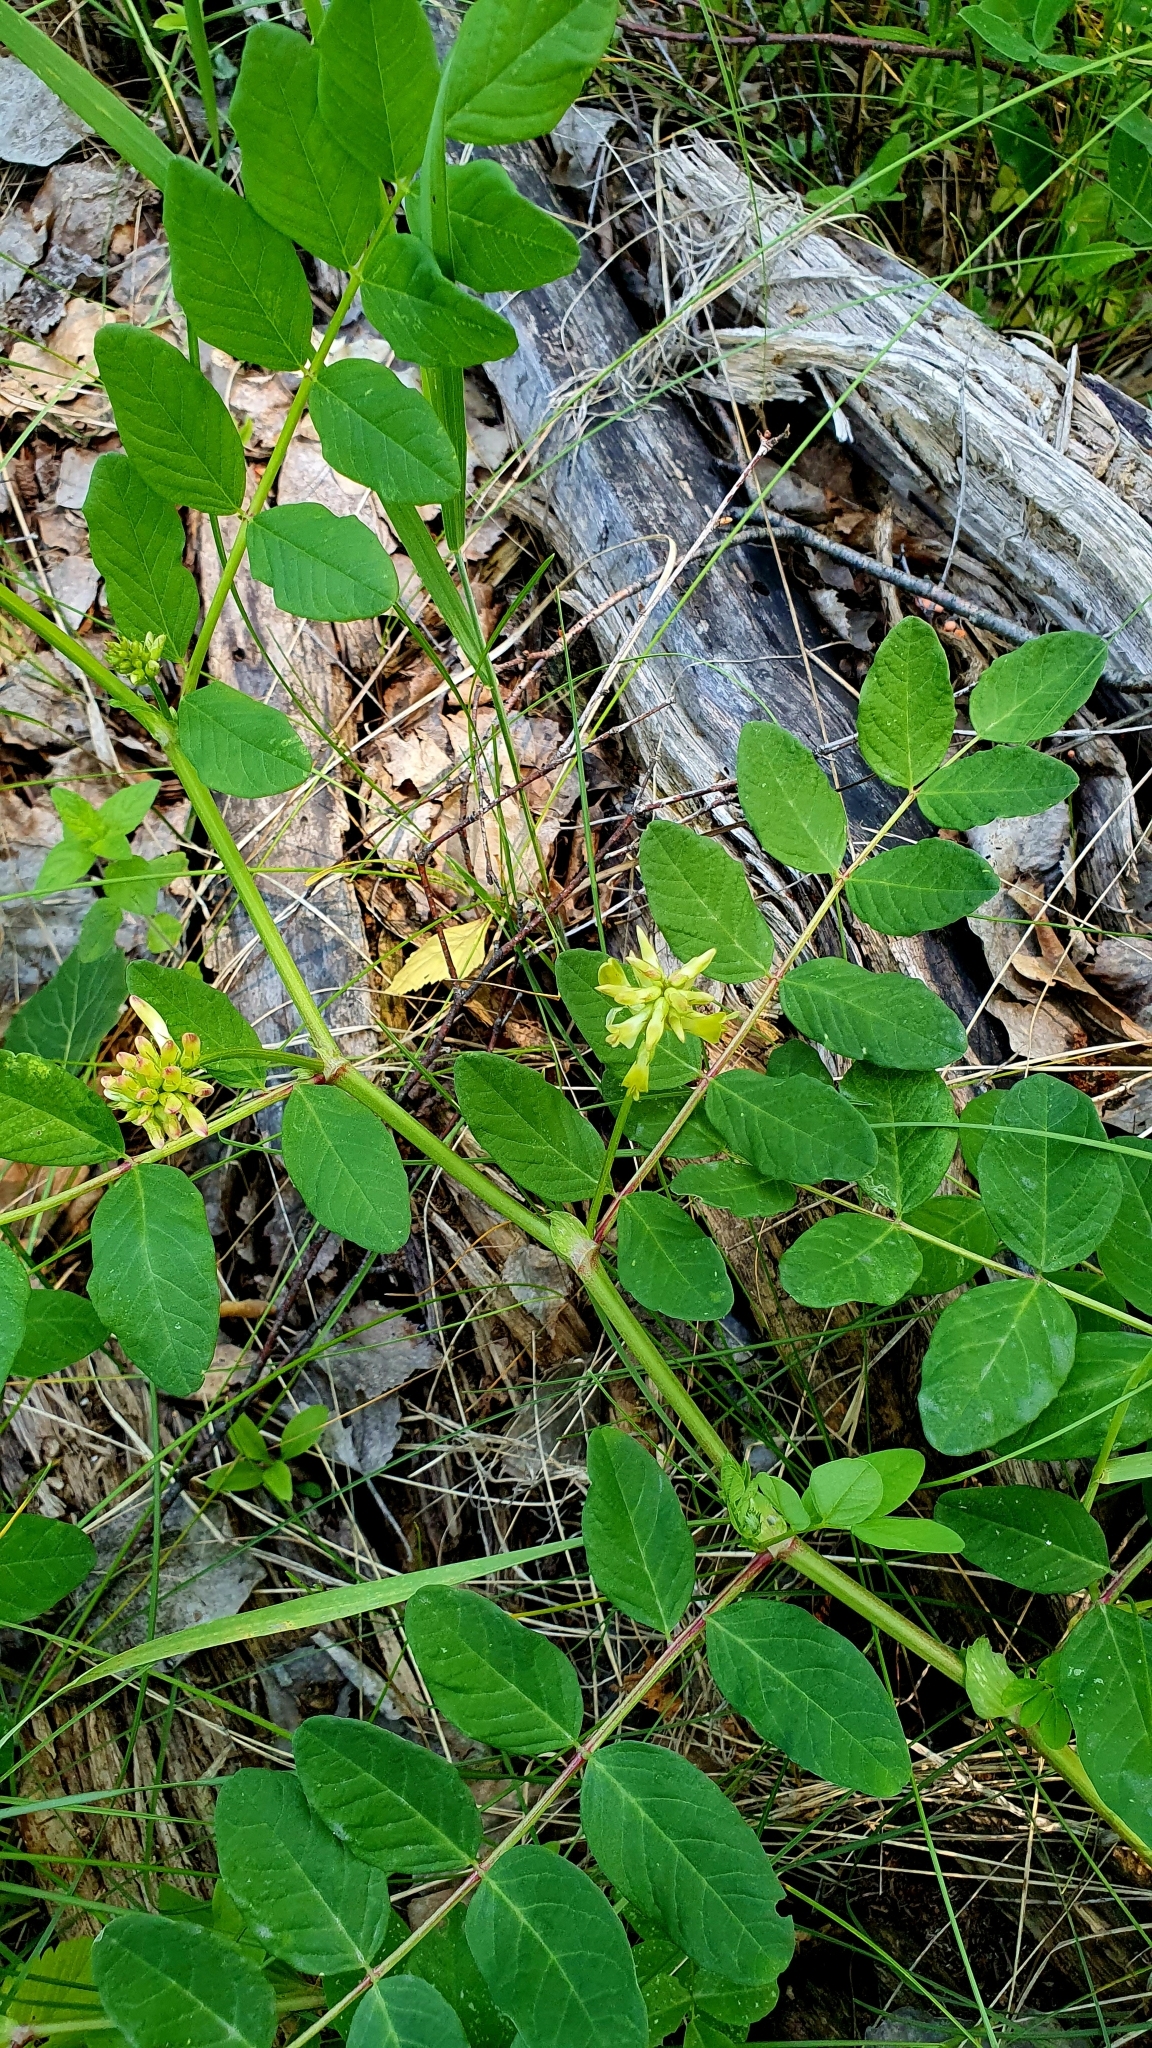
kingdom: Plantae
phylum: Tracheophyta
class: Magnoliopsida
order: Fabales
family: Fabaceae
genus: Astragalus
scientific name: Astragalus glycyphyllos
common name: Wild liquorice
